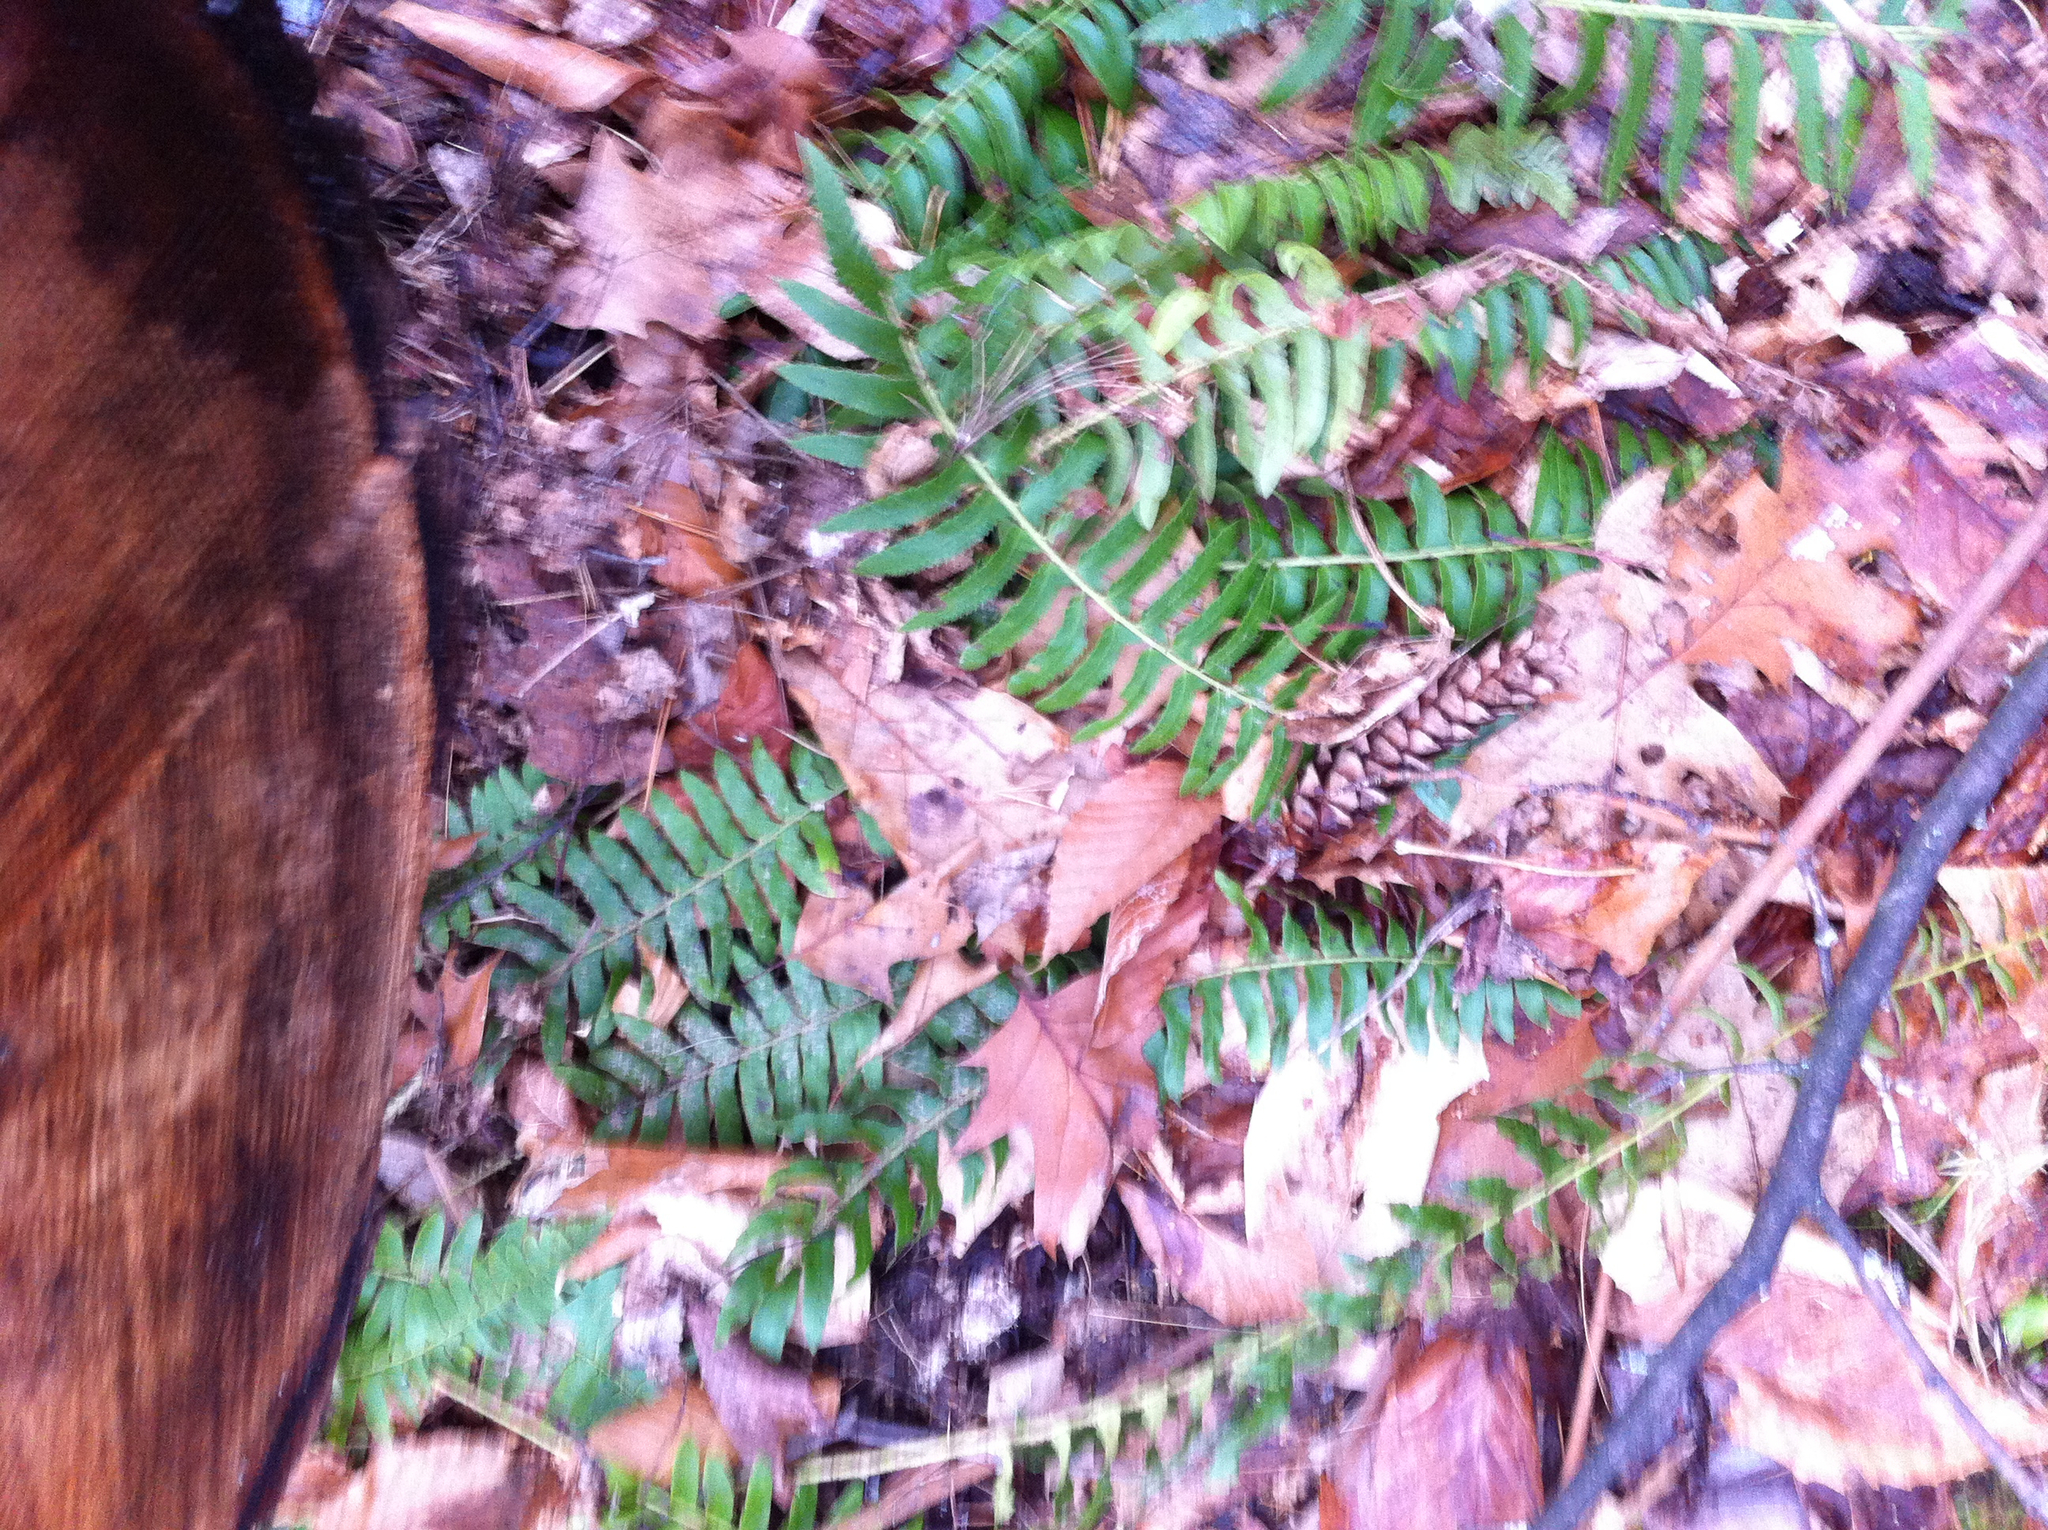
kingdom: Plantae
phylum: Tracheophyta
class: Polypodiopsida
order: Polypodiales
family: Dryopteridaceae
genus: Polystichum
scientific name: Polystichum acrostichoides
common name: Christmas fern
